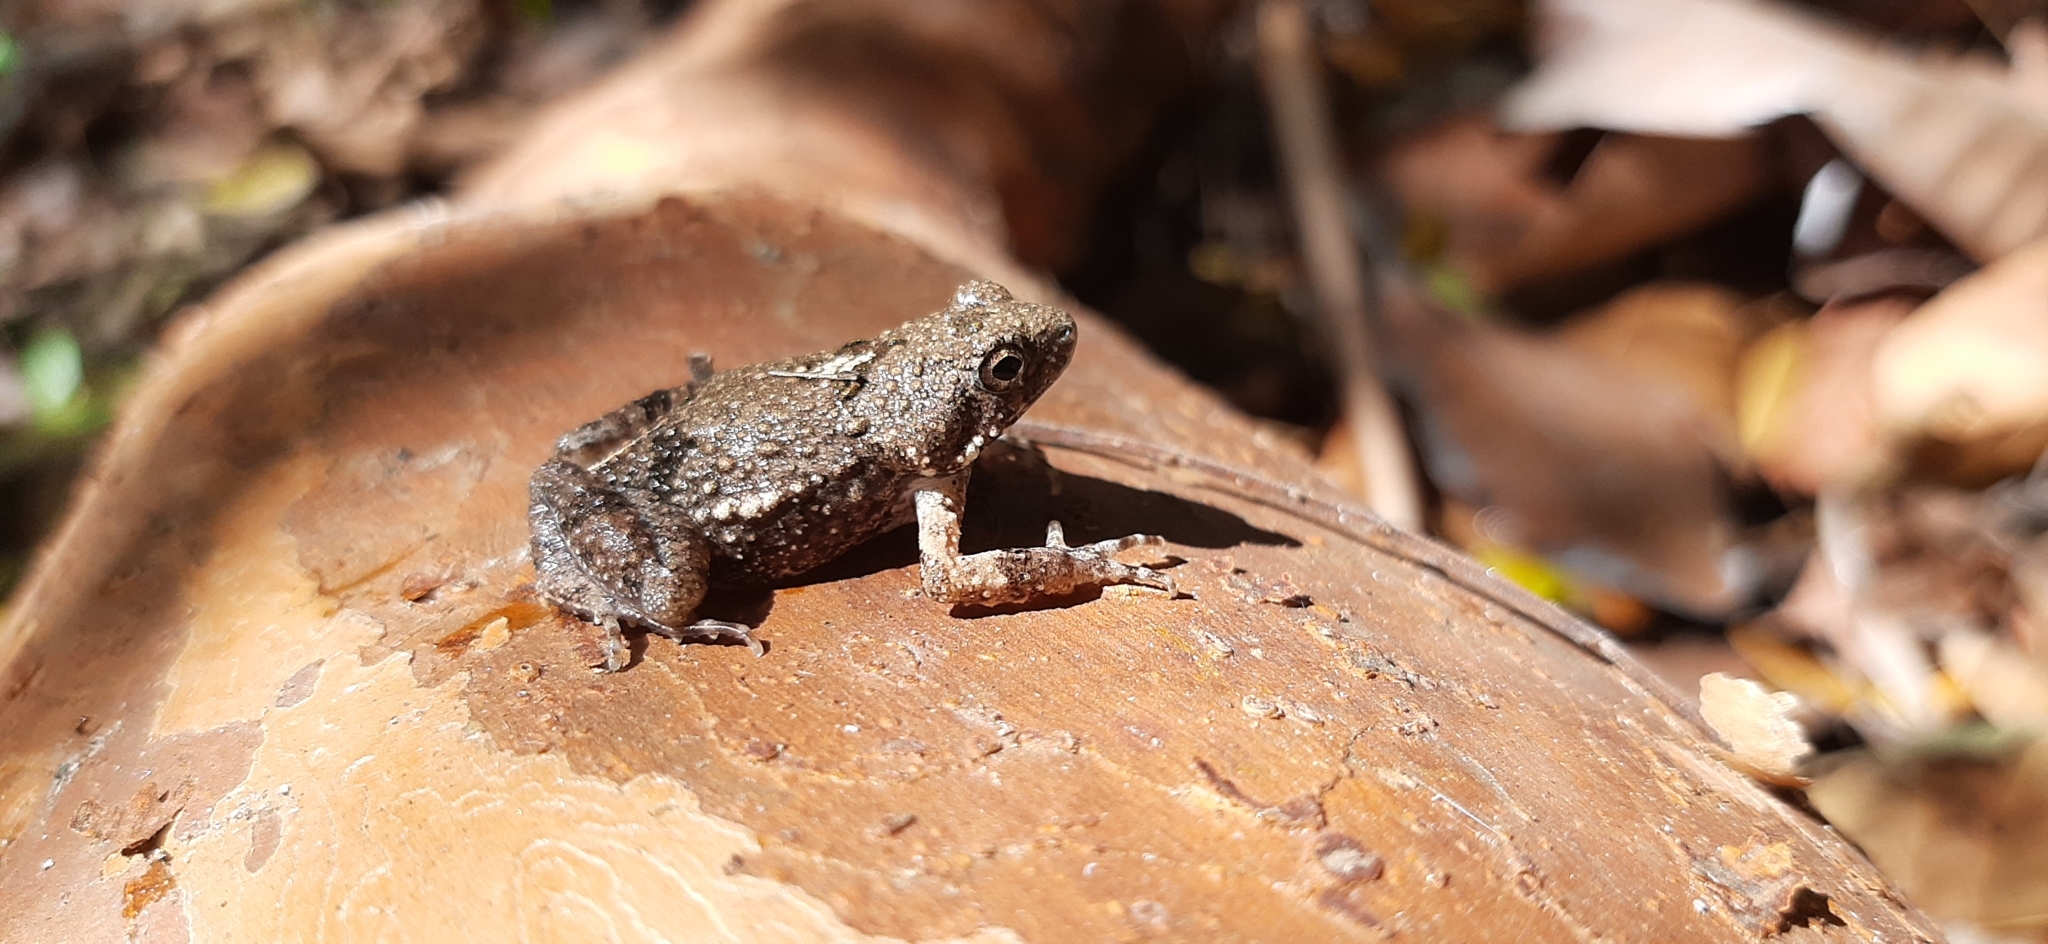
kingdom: Animalia
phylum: Chordata
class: Amphibia
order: Anura
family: Leptodactylidae
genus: Engystomops
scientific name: Engystomops pustulosus
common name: Tungara frog
